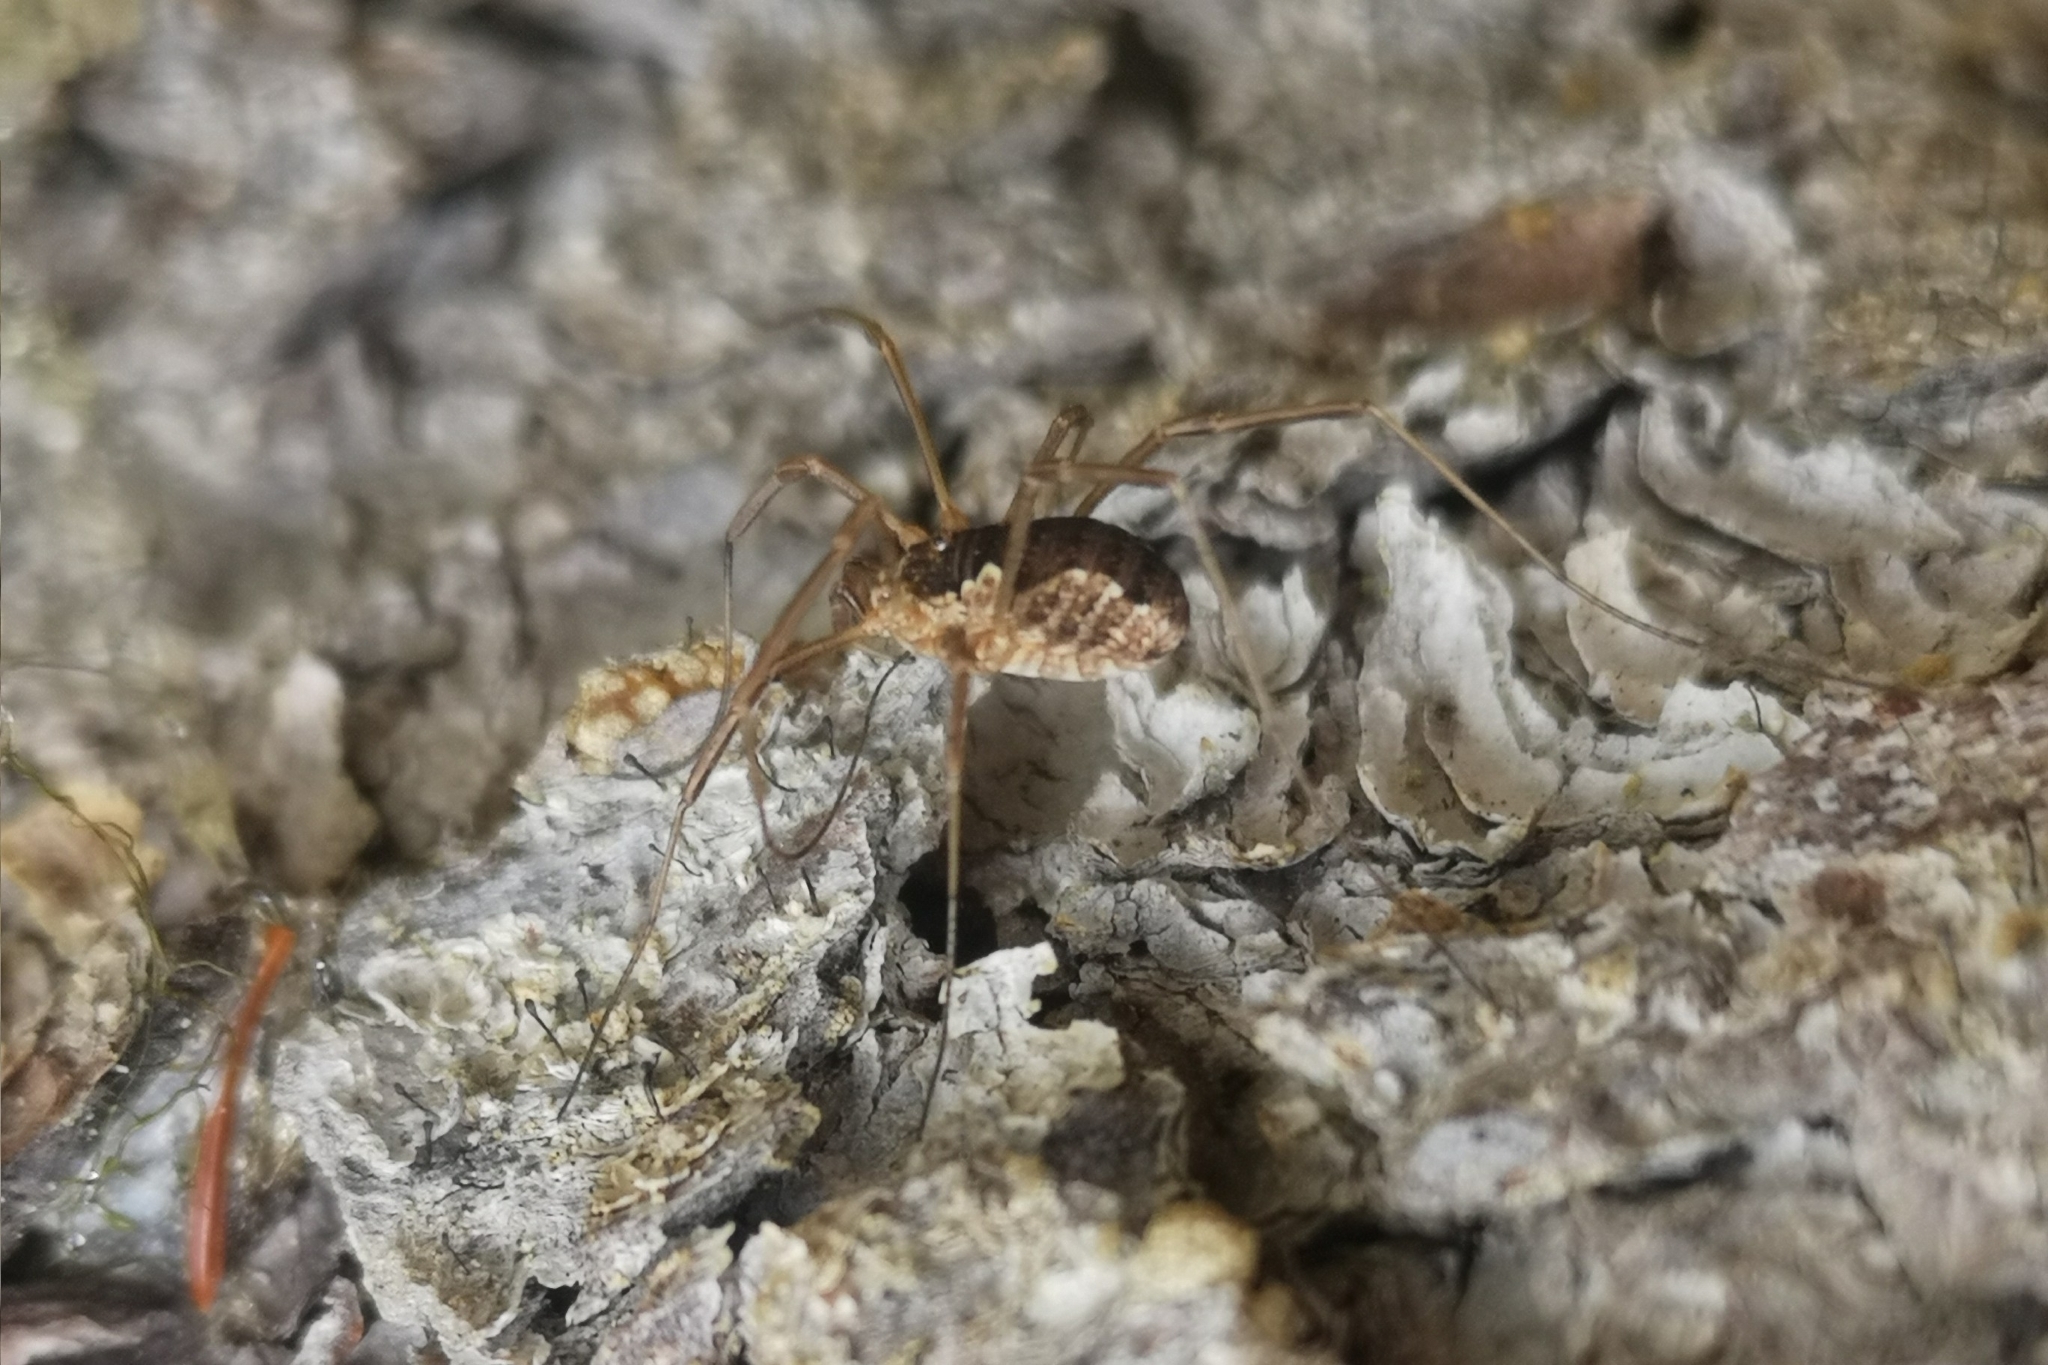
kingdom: Animalia
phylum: Arthropoda
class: Arachnida
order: Opiliones
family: Phalangiidae
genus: Mitopus
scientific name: Mitopus morio
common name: Saddleback harvestman
